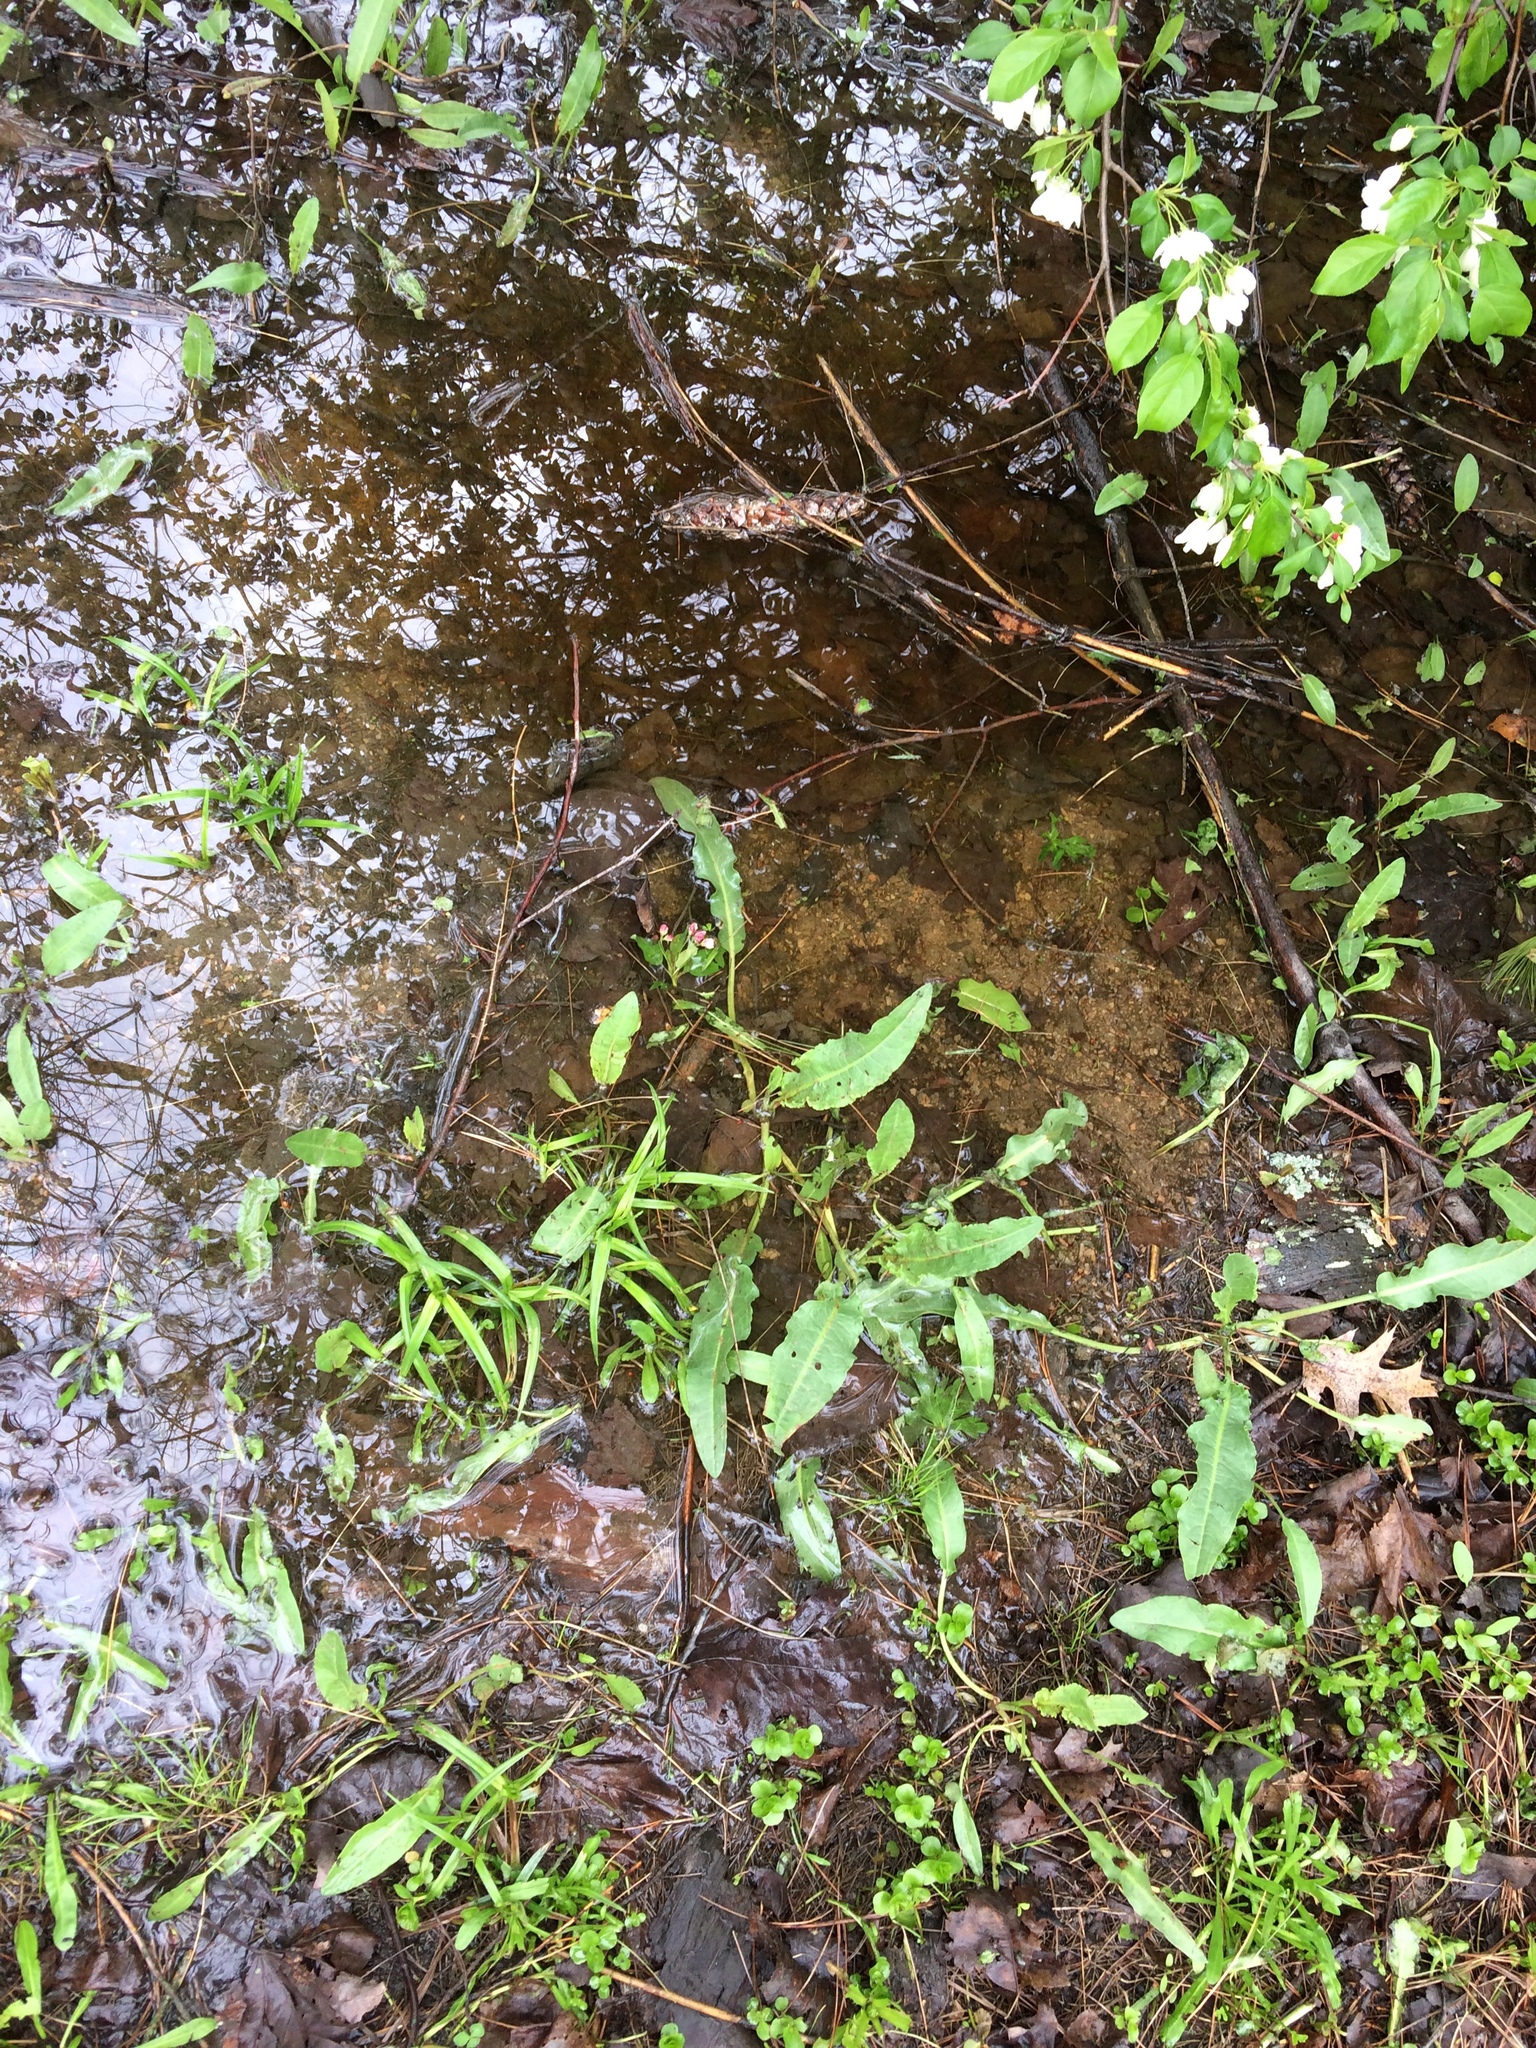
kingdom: Plantae
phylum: Tracheophyta
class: Magnoliopsida
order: Caryophyllales
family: Polygonaceae
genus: Rumex
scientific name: Rumex crispus
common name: Curled dock
